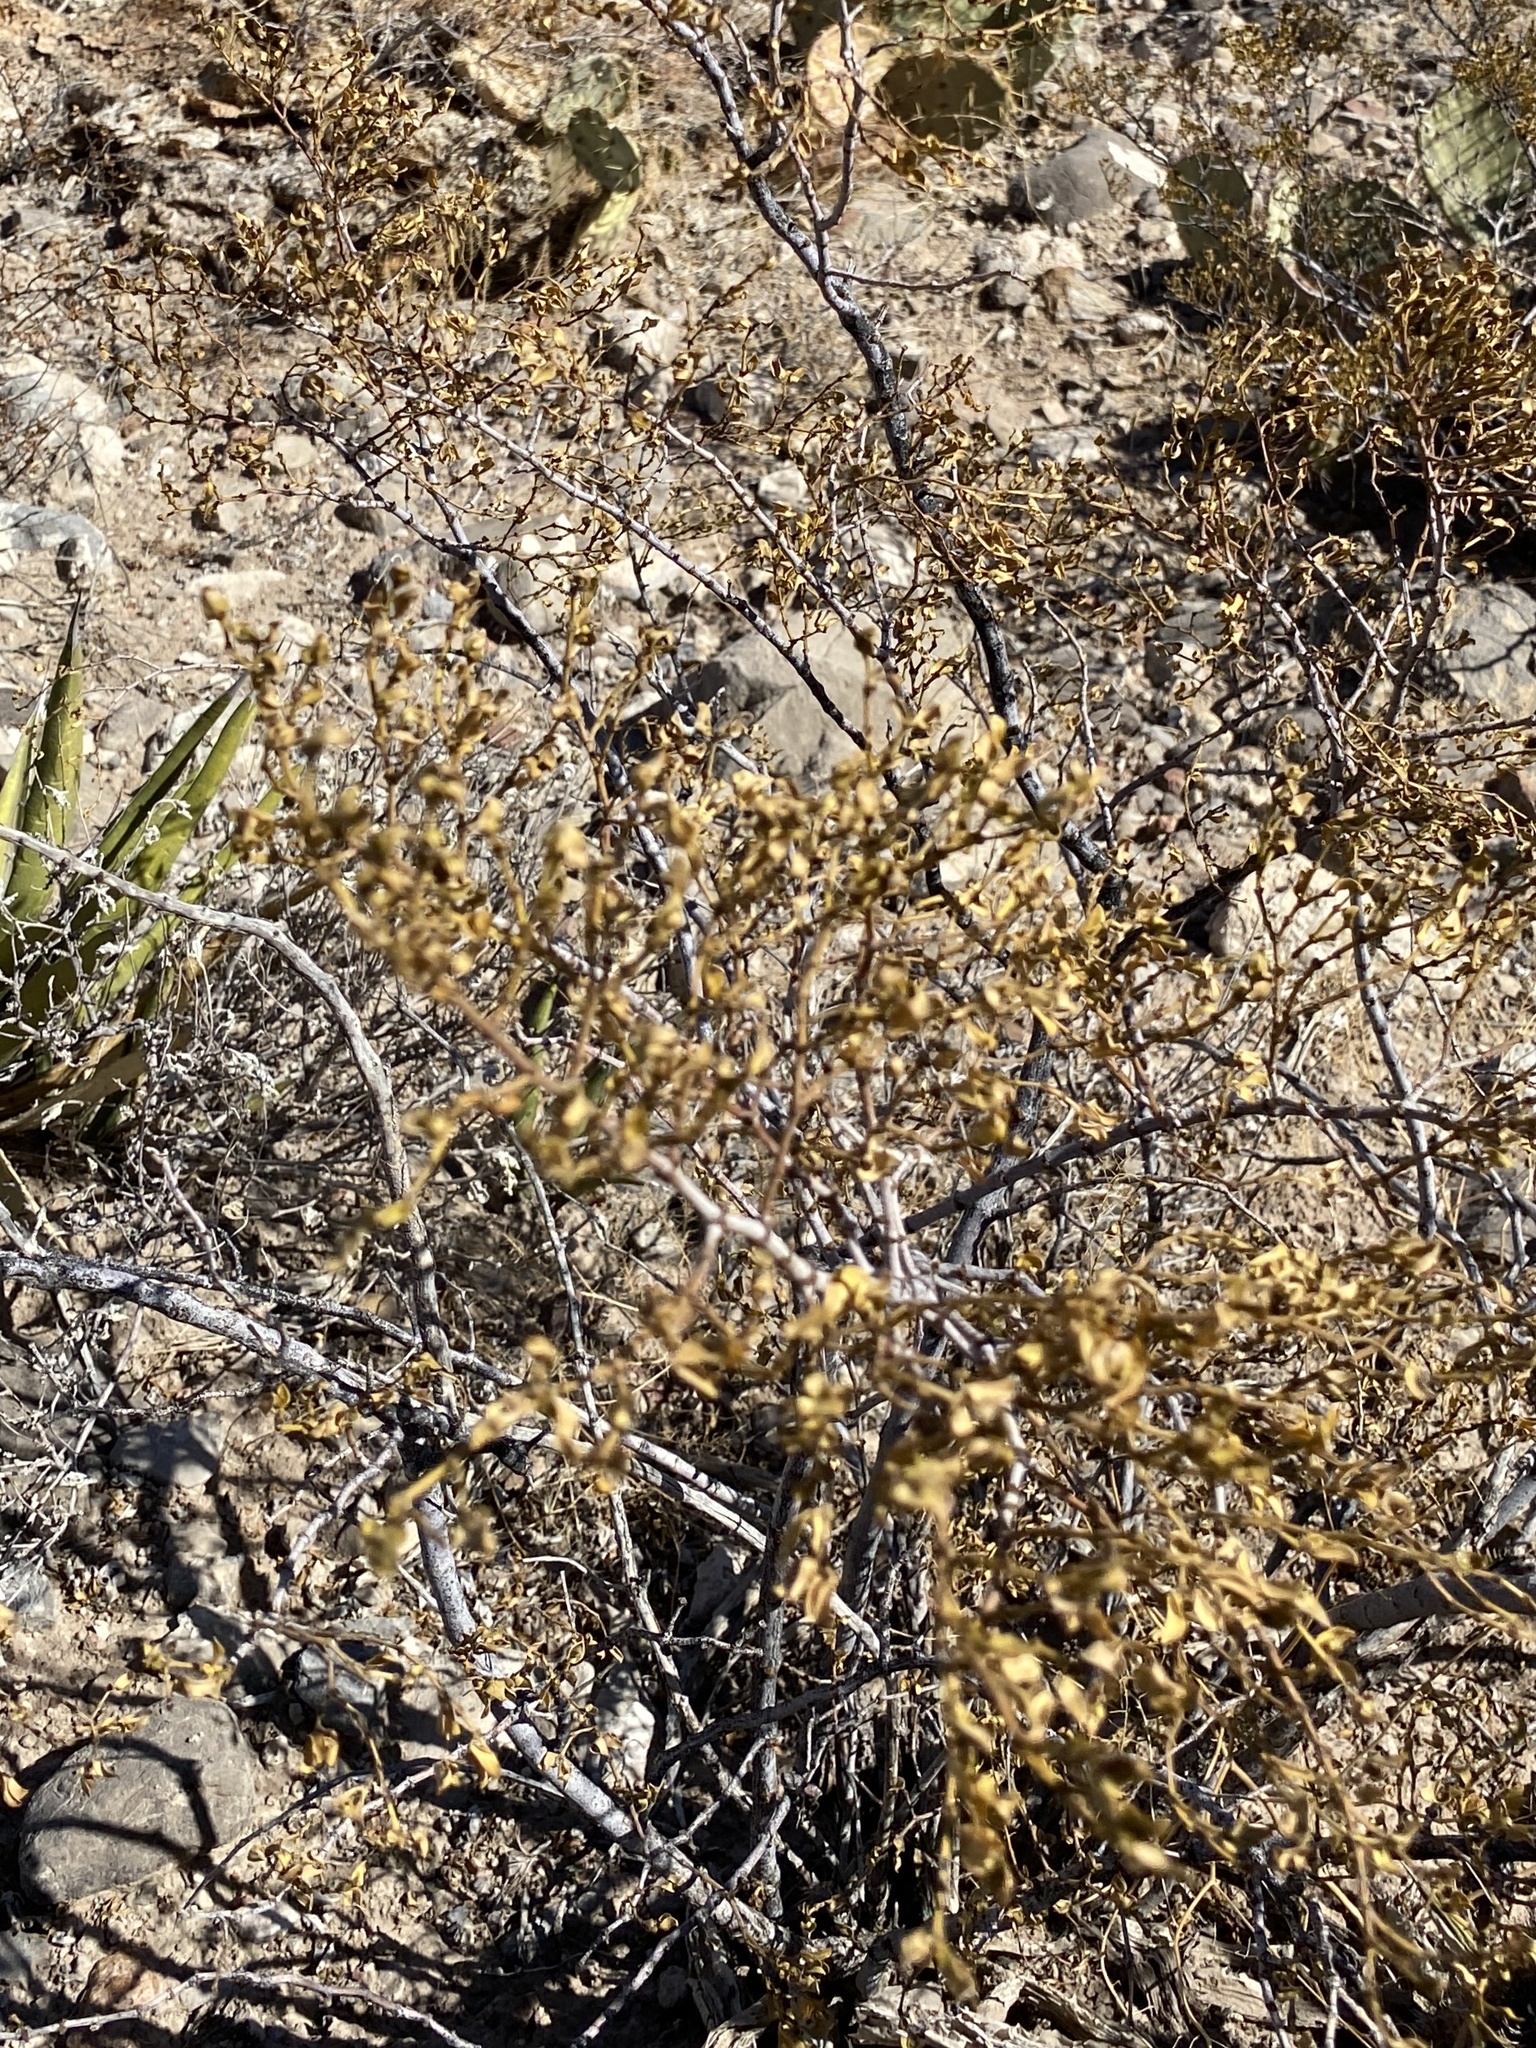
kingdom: Plantae
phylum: Tracheophyta
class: Magnoliopsida
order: Zygophyllales
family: Zygophyllaceae
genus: Larrea
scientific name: Larrea tridentata
